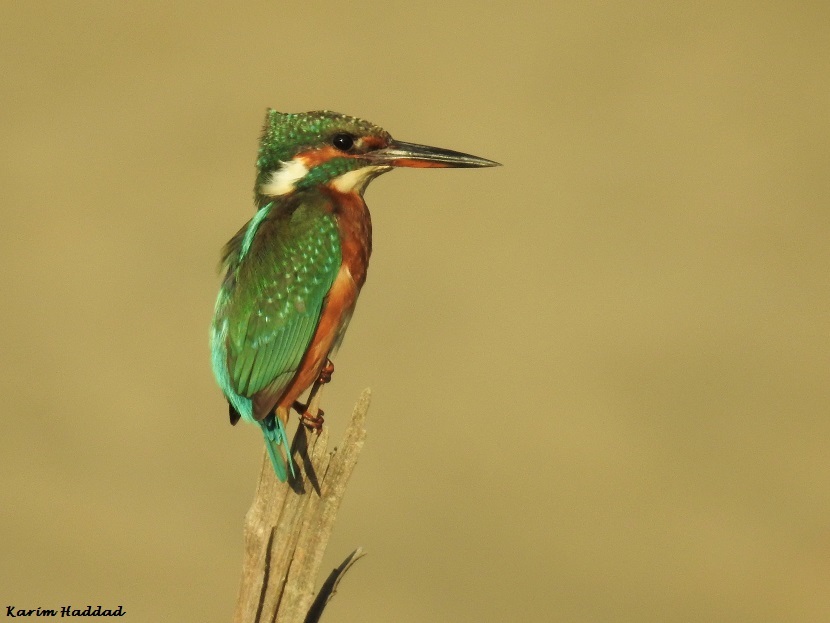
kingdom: Animalia
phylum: Chordata
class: Aves
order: Coraciiformes
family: Alcedinidae
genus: Alcedo
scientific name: Alcedo atthis
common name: Common kingfisher
